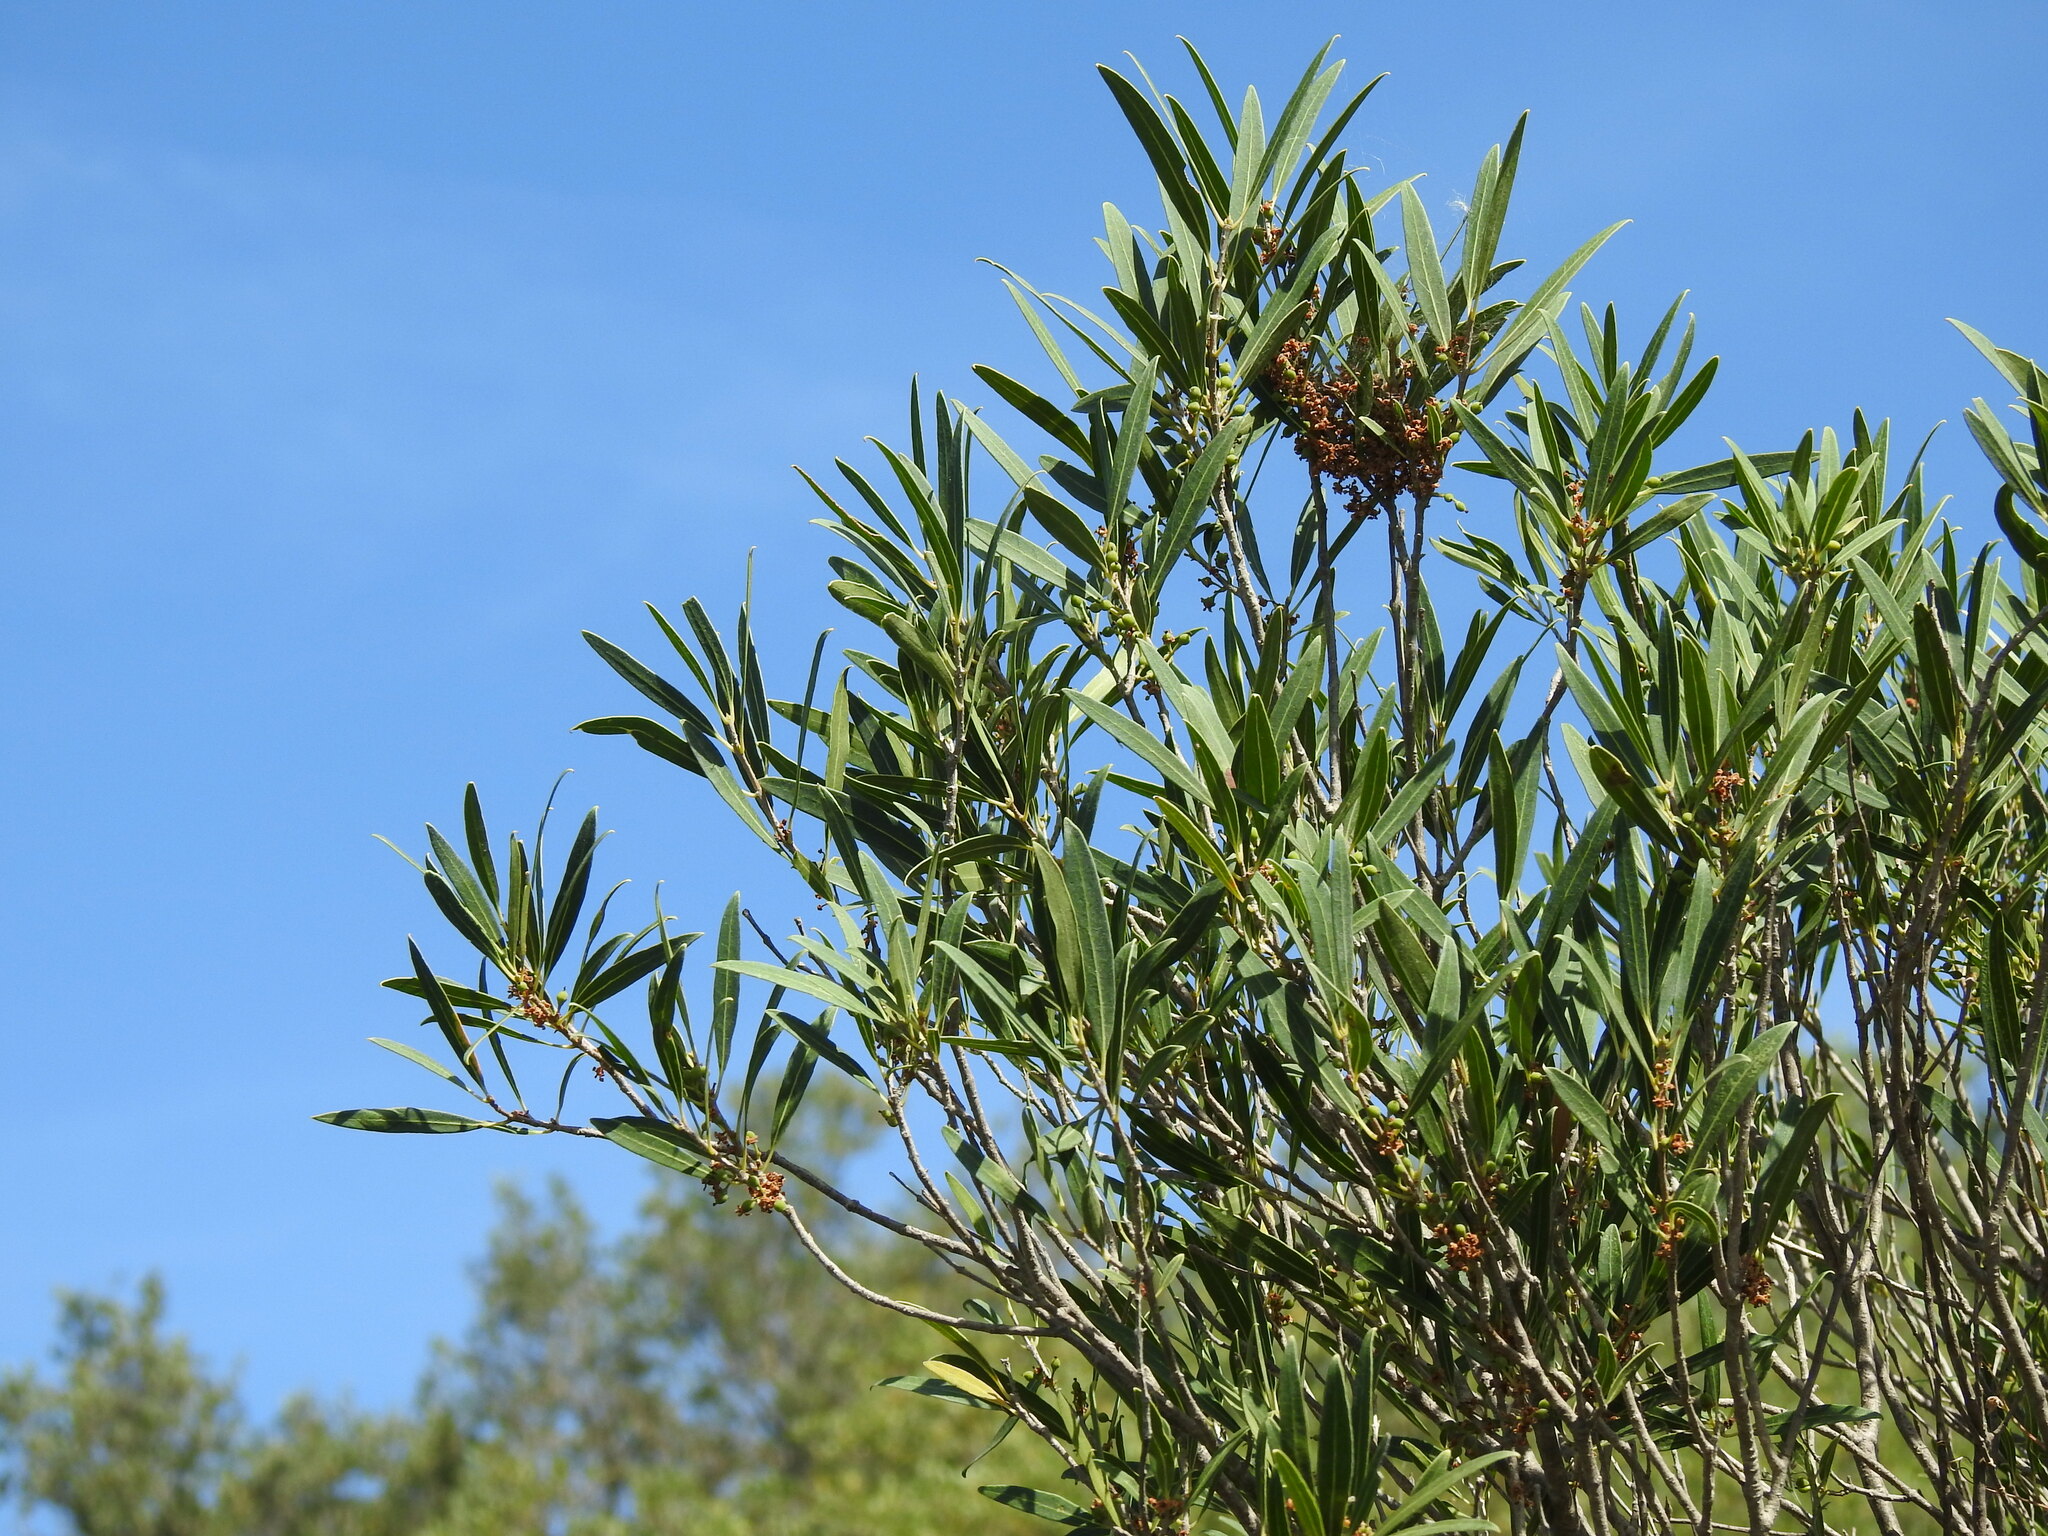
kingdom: Plantae
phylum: Tracheophyta
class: Magnoliopsida
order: Lamiales
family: Oleaceae
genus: Phillyrea
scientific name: Phillyrea angustifolia
